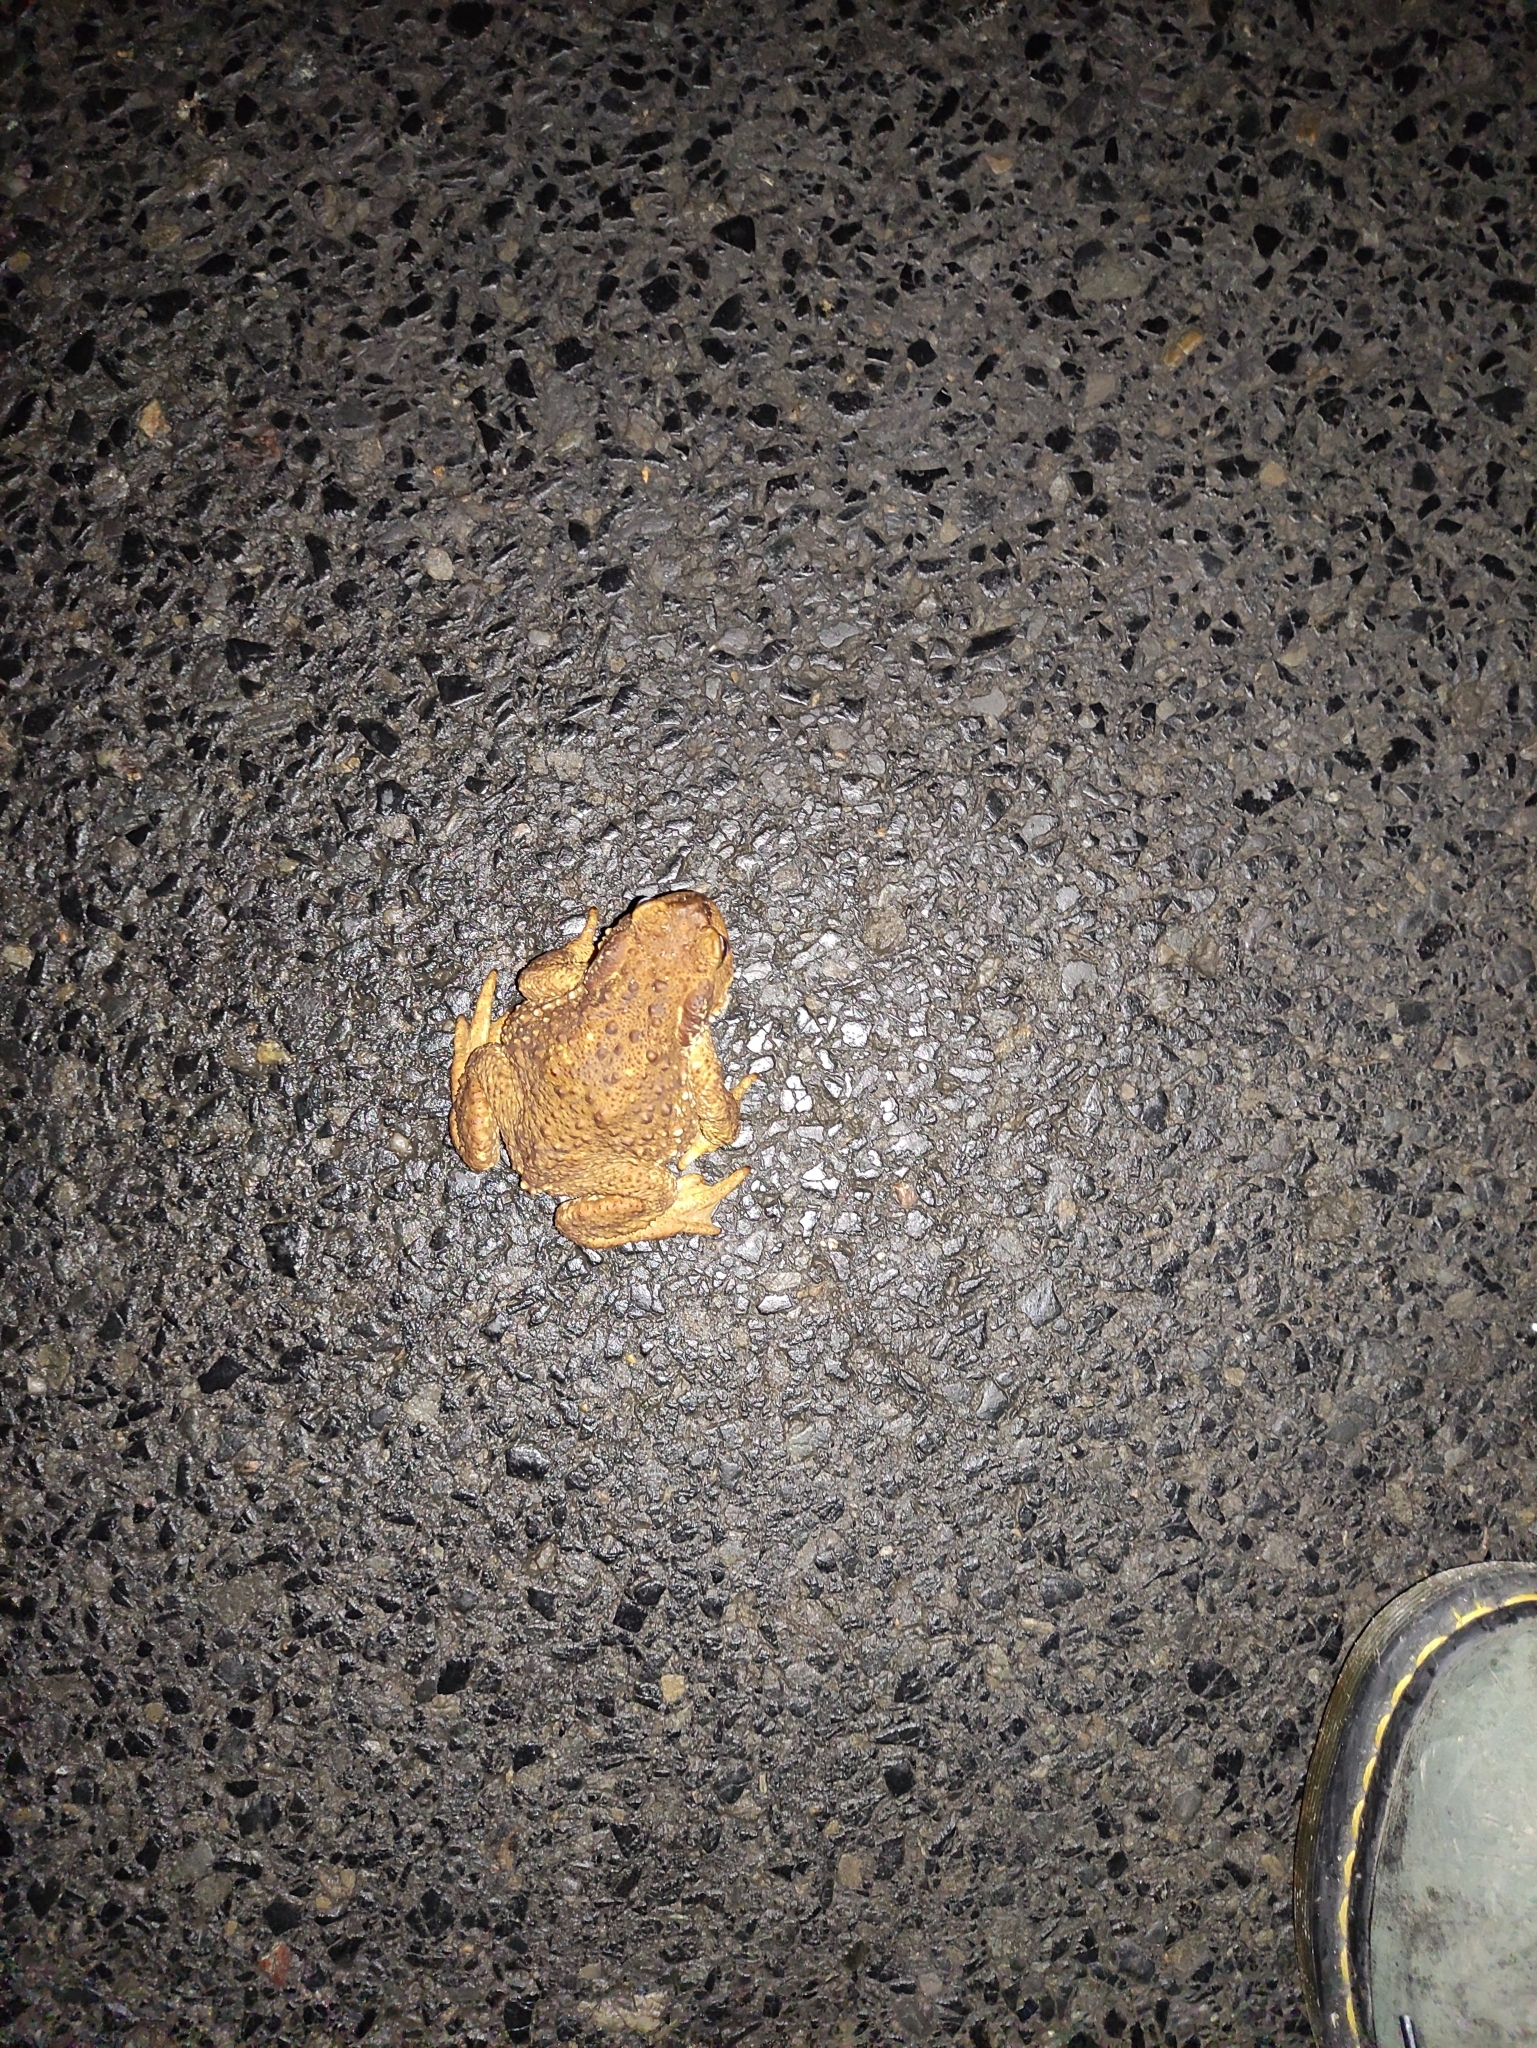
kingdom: Animalia
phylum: Chordata
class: Amphibia
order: Anura
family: Bufonidae
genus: Bufo
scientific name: Bufo spinosus
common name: Western common toad
